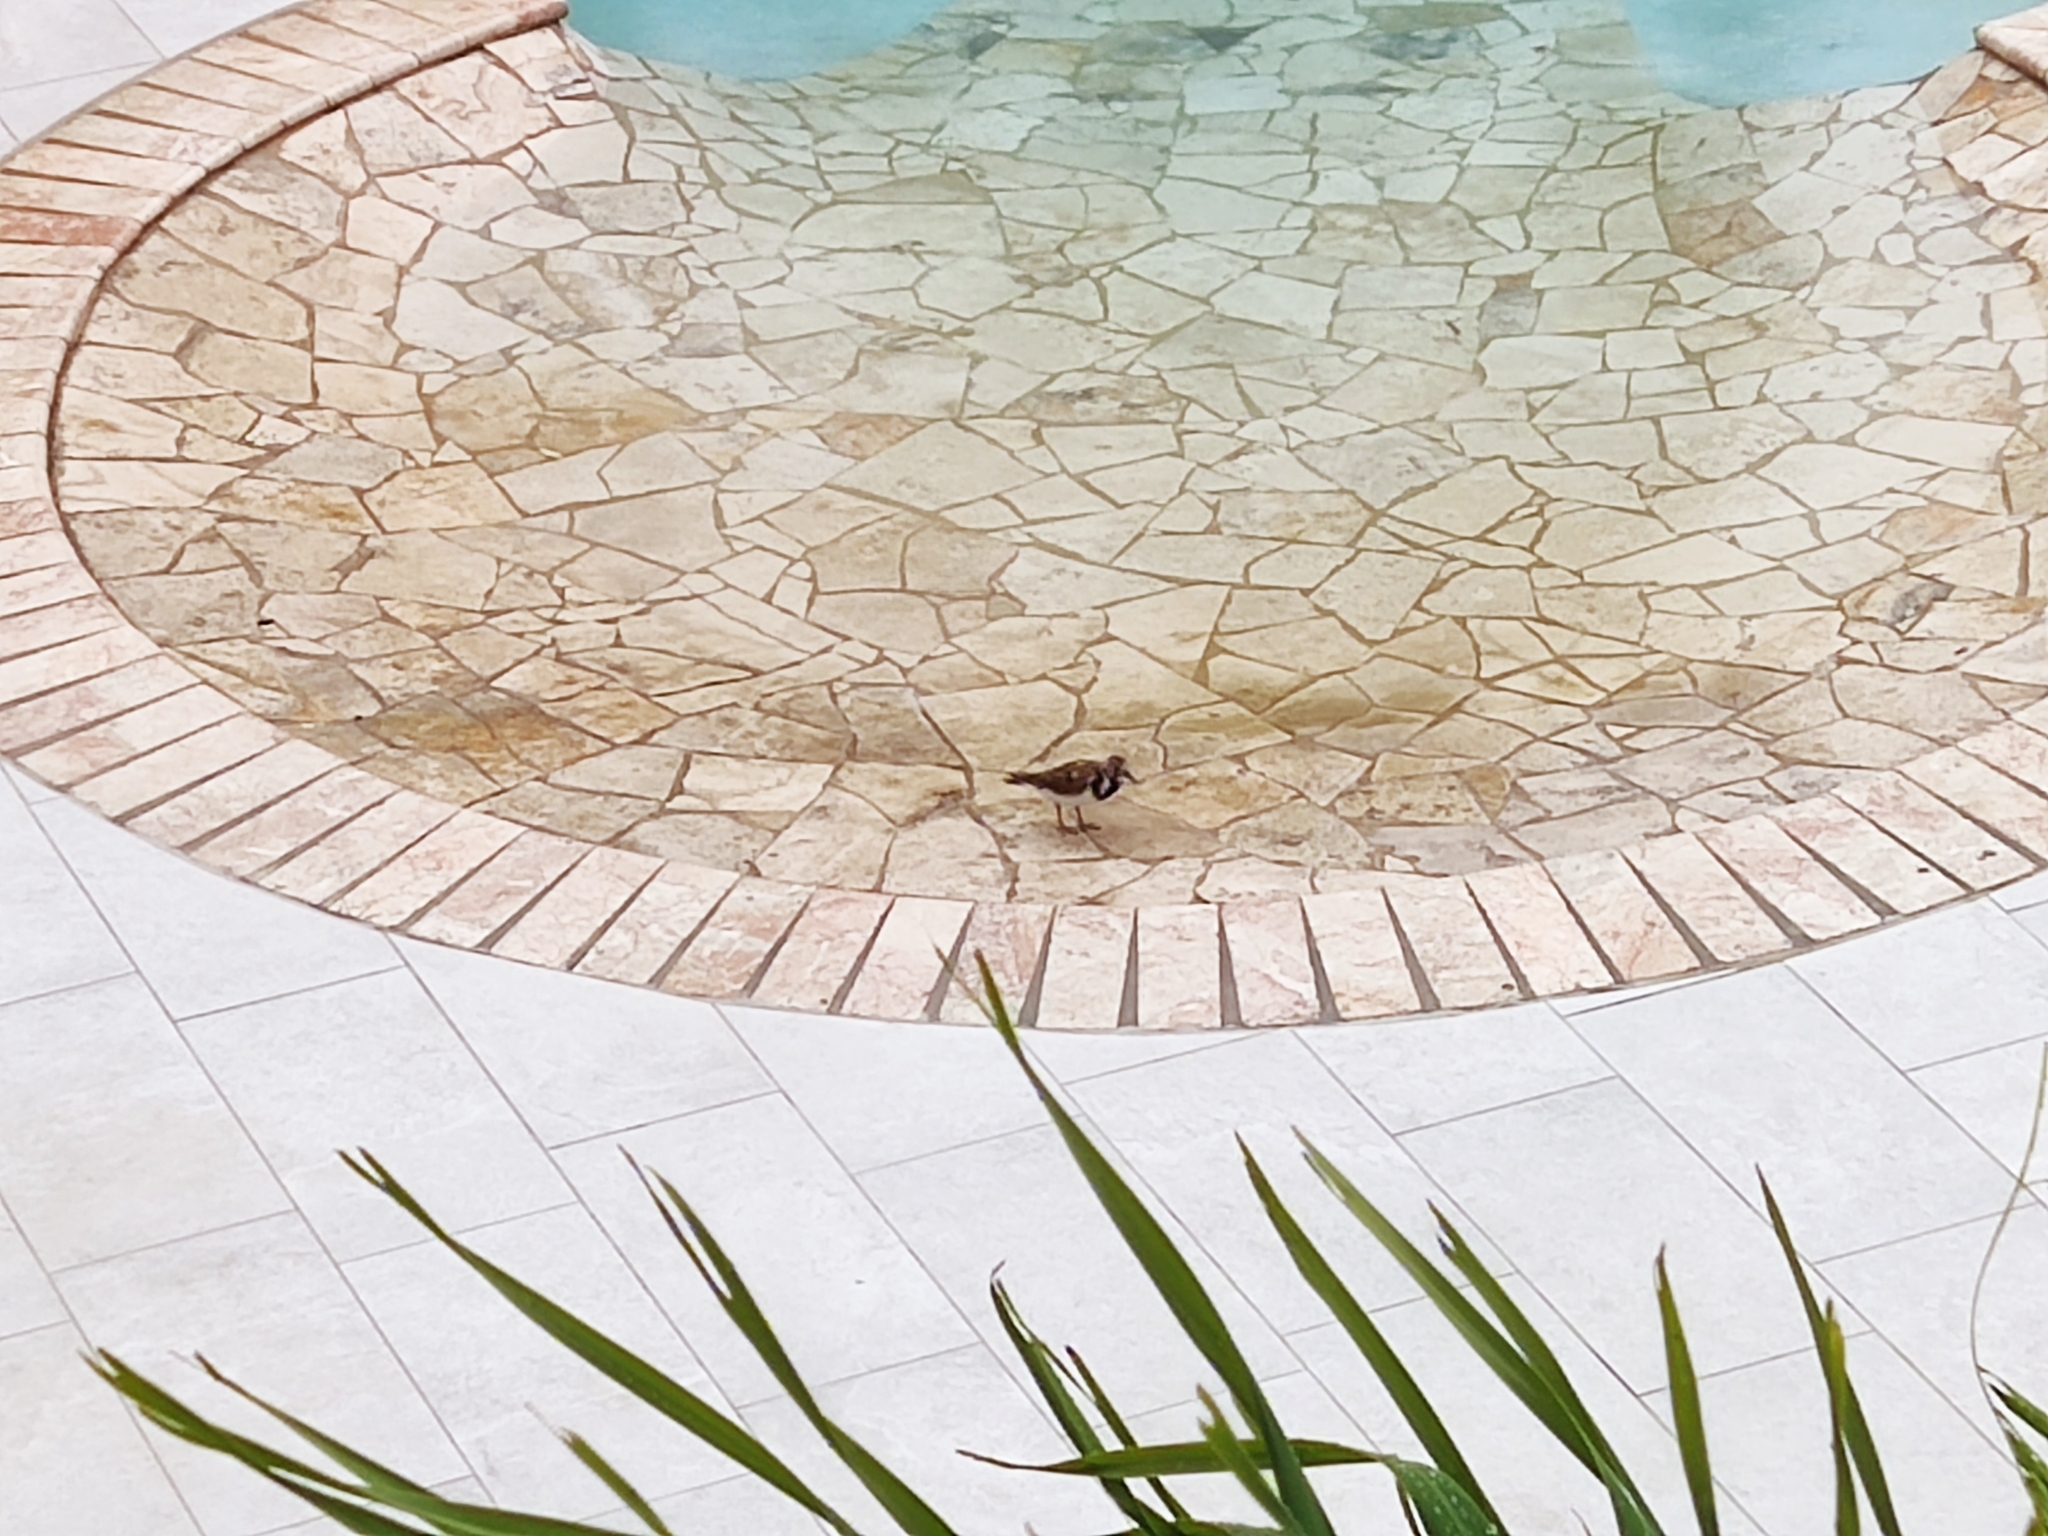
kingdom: Animalia
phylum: Chordata
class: Aves
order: Charadriiformes
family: Scolopacidae
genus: Arenaria
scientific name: Arenaria interpres
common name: Ruddy turnstone
